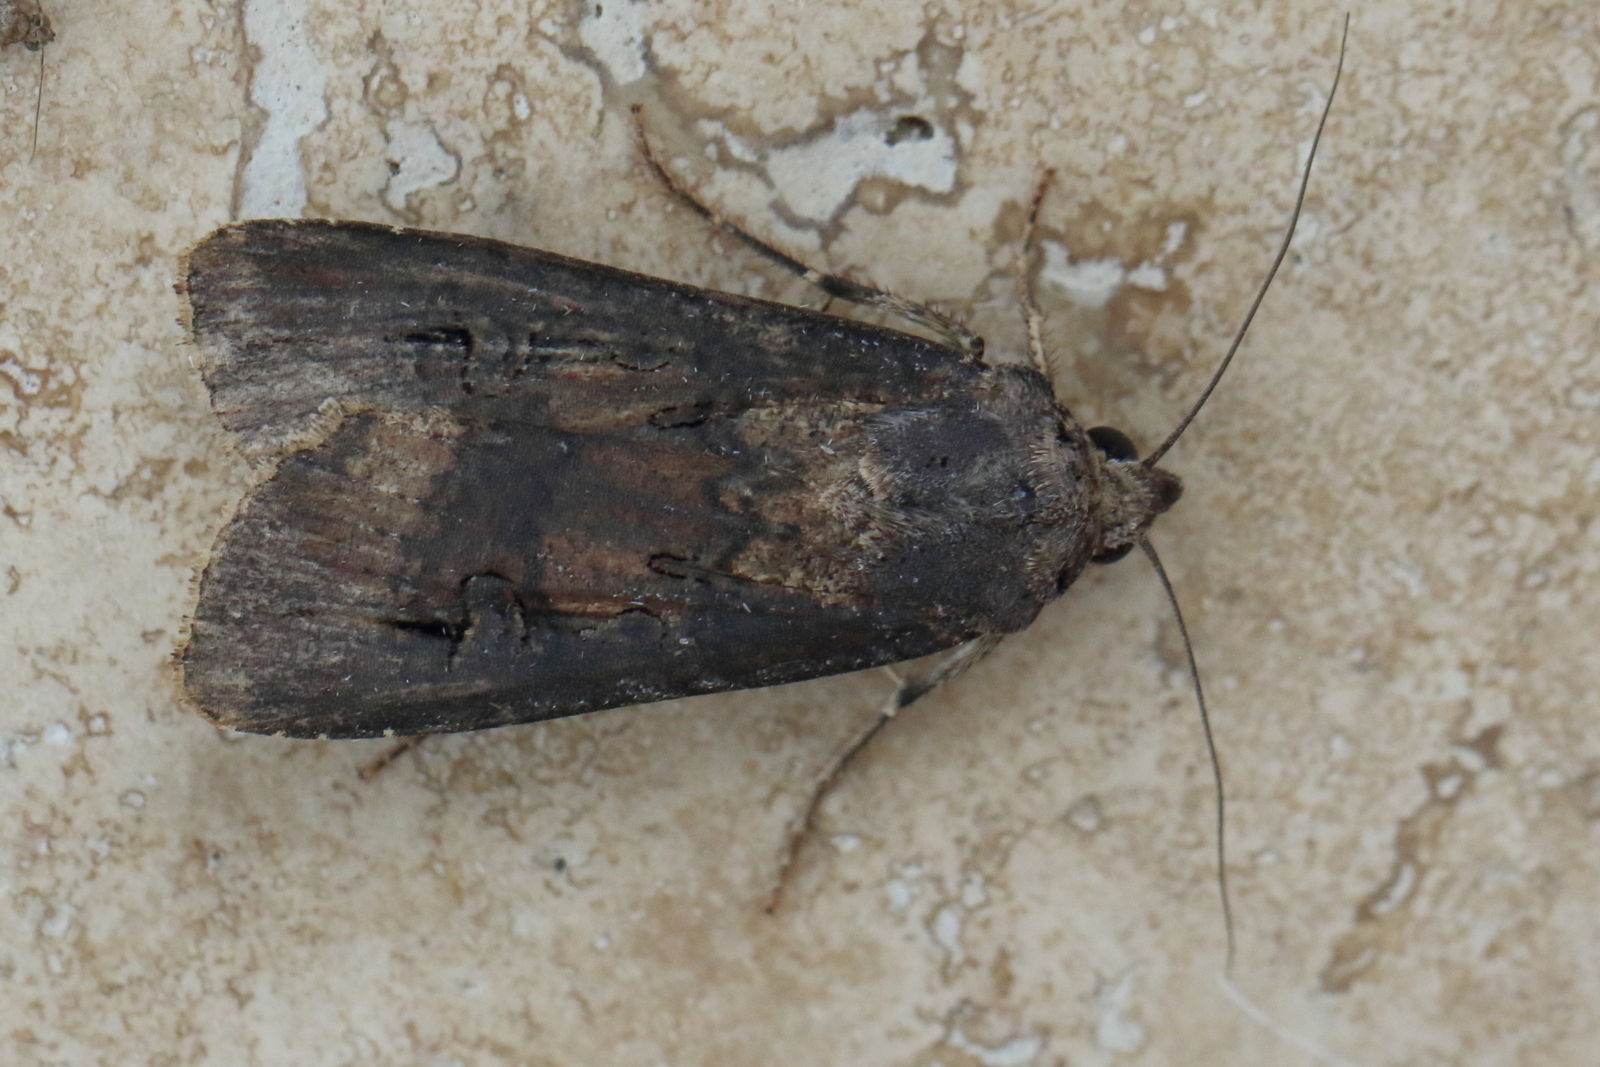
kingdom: Animalia
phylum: Arthropoda
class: Insecta
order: Lepidoptera
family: Noctuidae
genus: Agrotis
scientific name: Agrotis ipsilon
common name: Dark sword-grass
